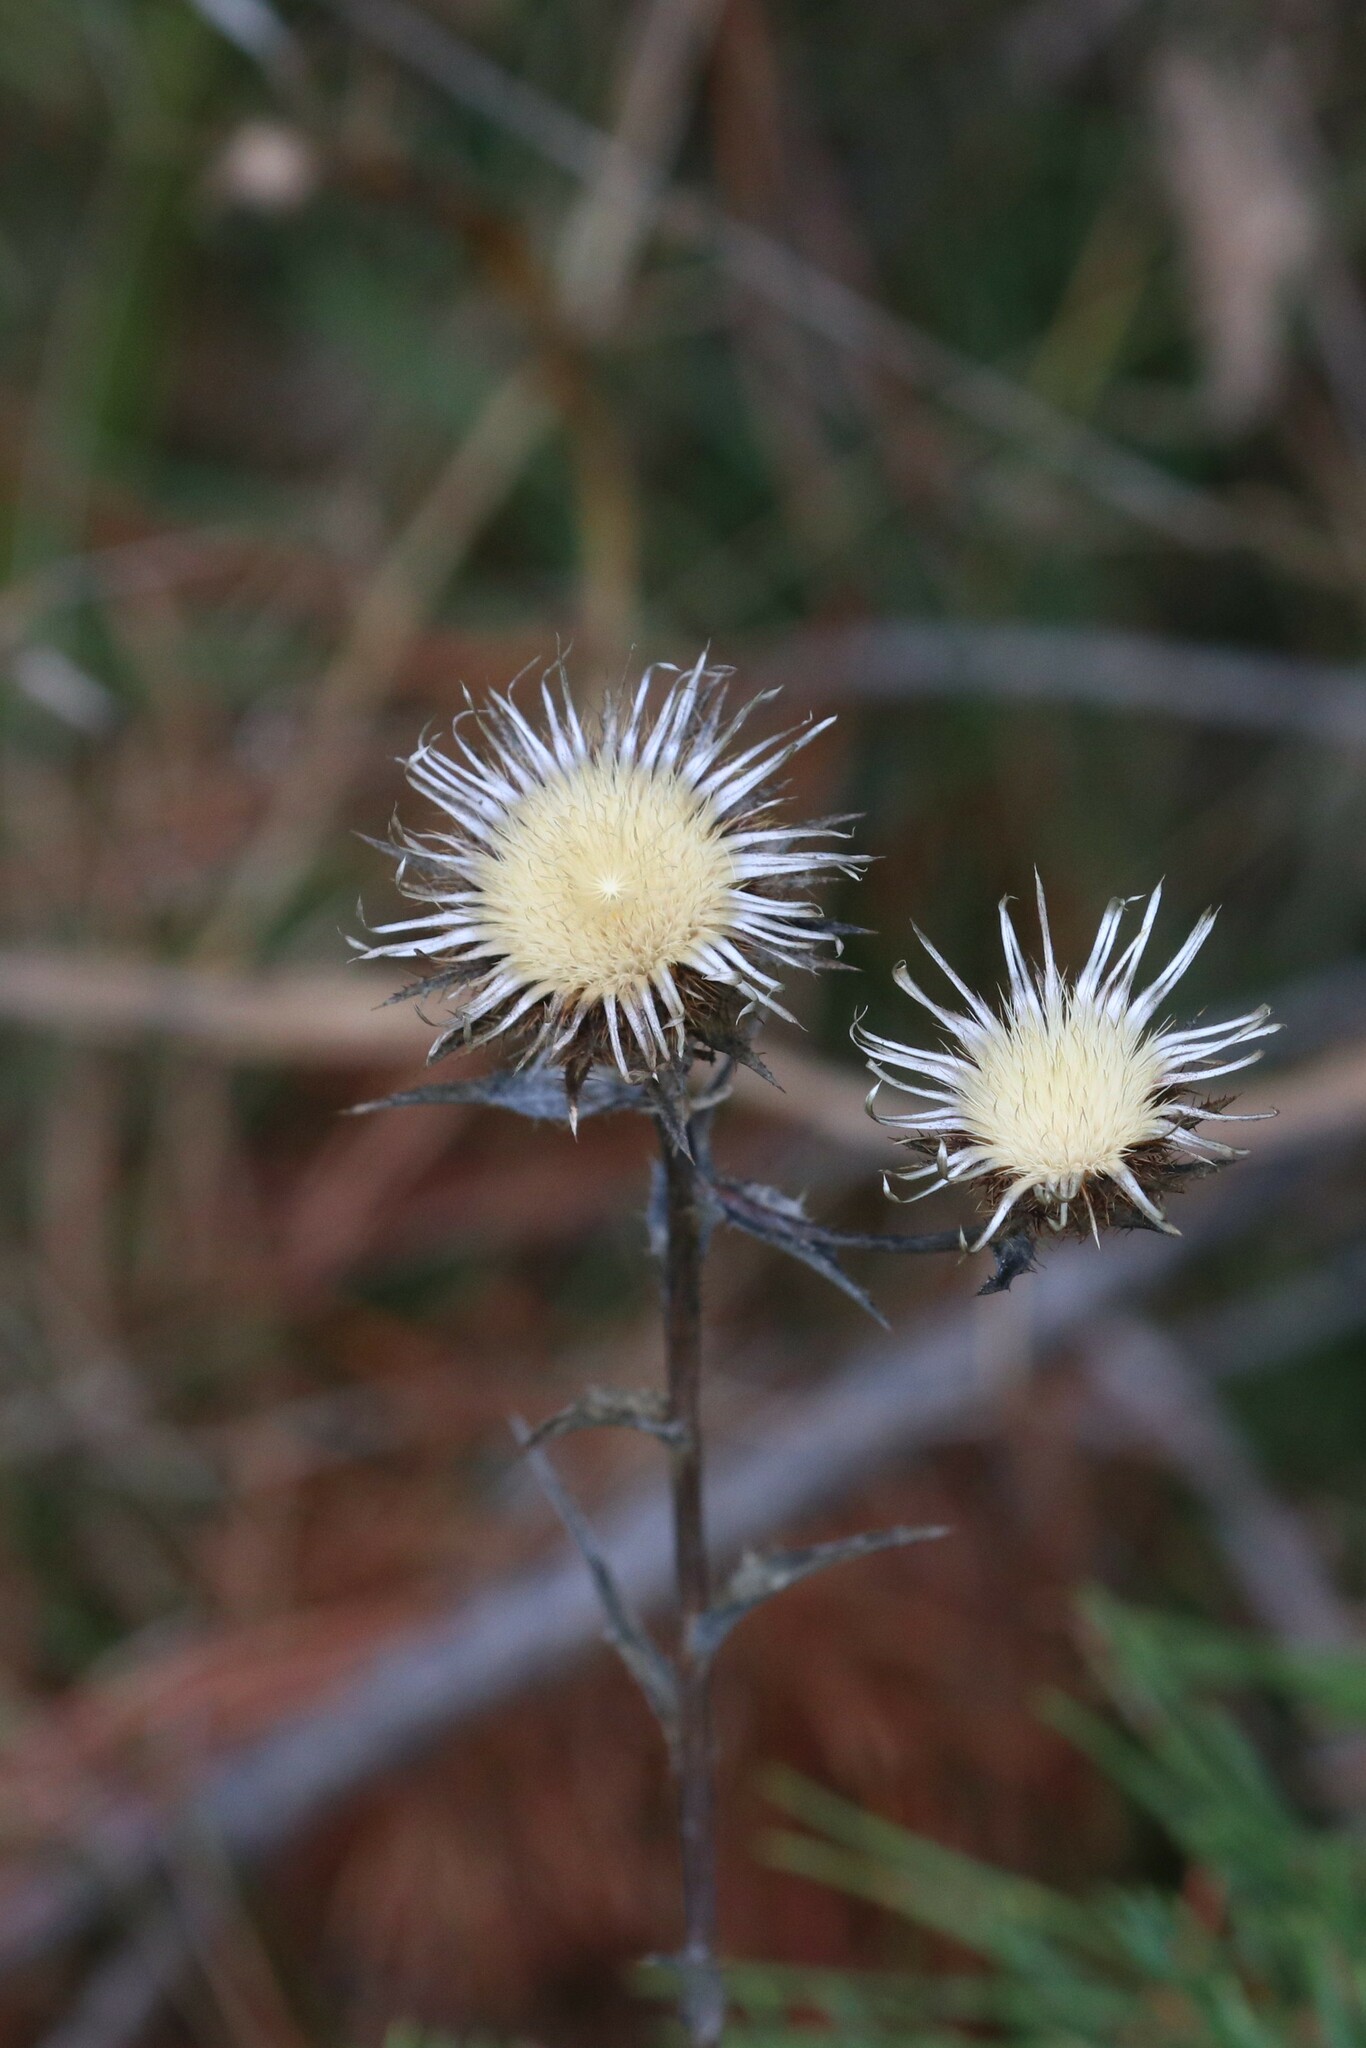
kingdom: Plantae
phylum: Tracheophyta
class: Magnoliopsida
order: Asterales
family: Asteraceae
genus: Carlina
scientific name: Carlina biebersteinii
